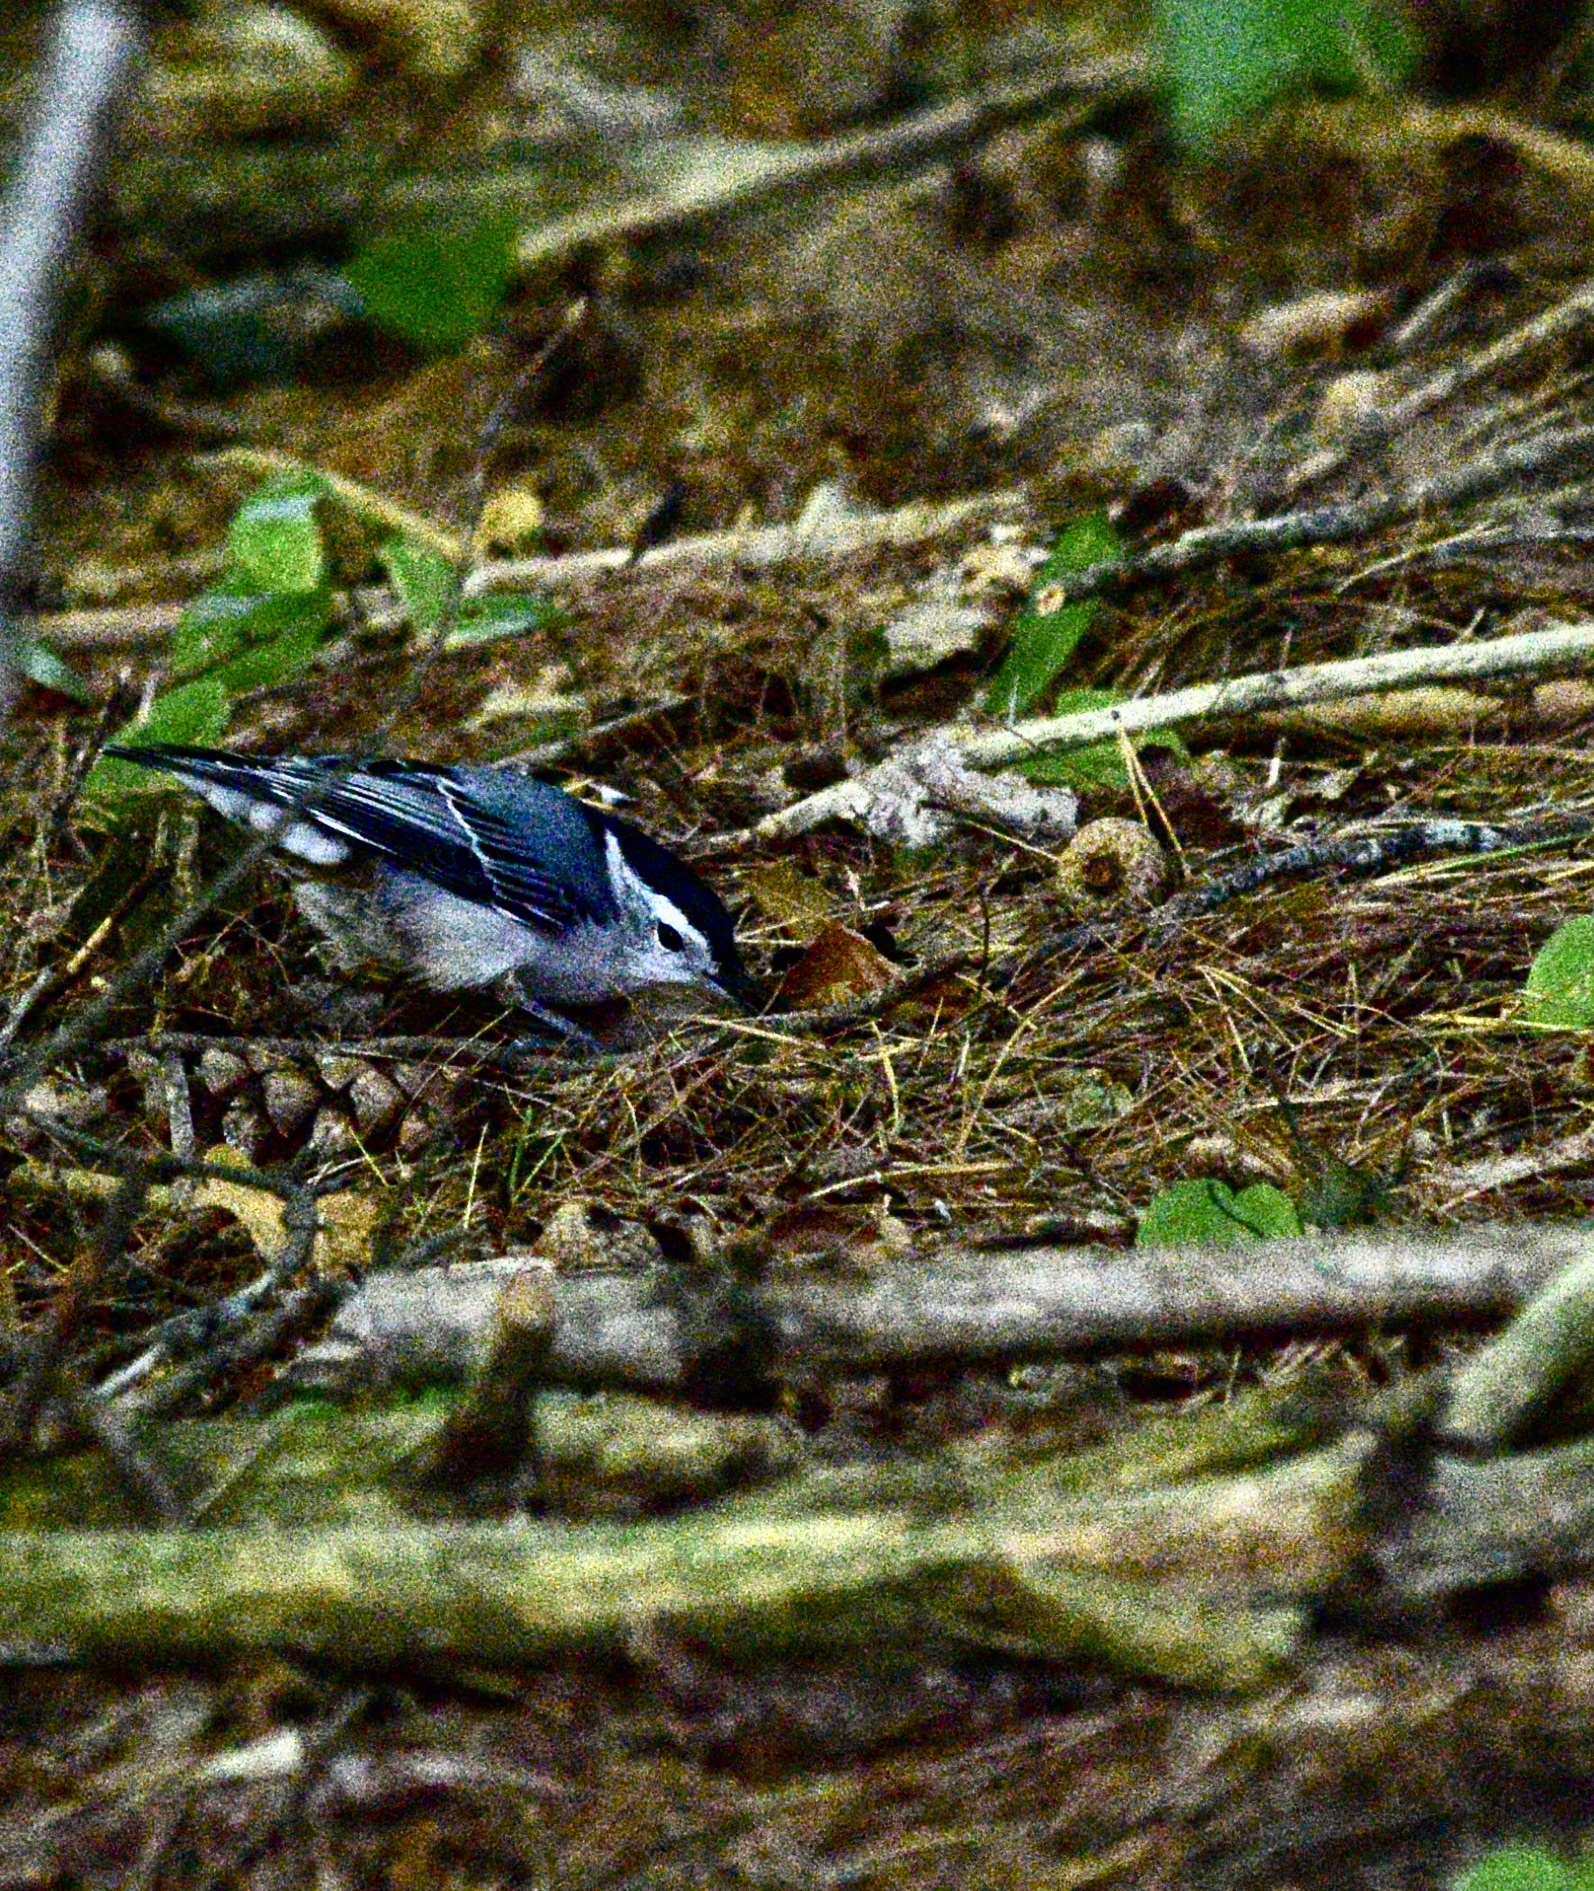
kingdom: Animalia
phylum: Chordata
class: Aves
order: Passeriformes
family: Sittidae
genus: Sitta
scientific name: Sitta carolinensis
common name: White-breasted nuthatch
